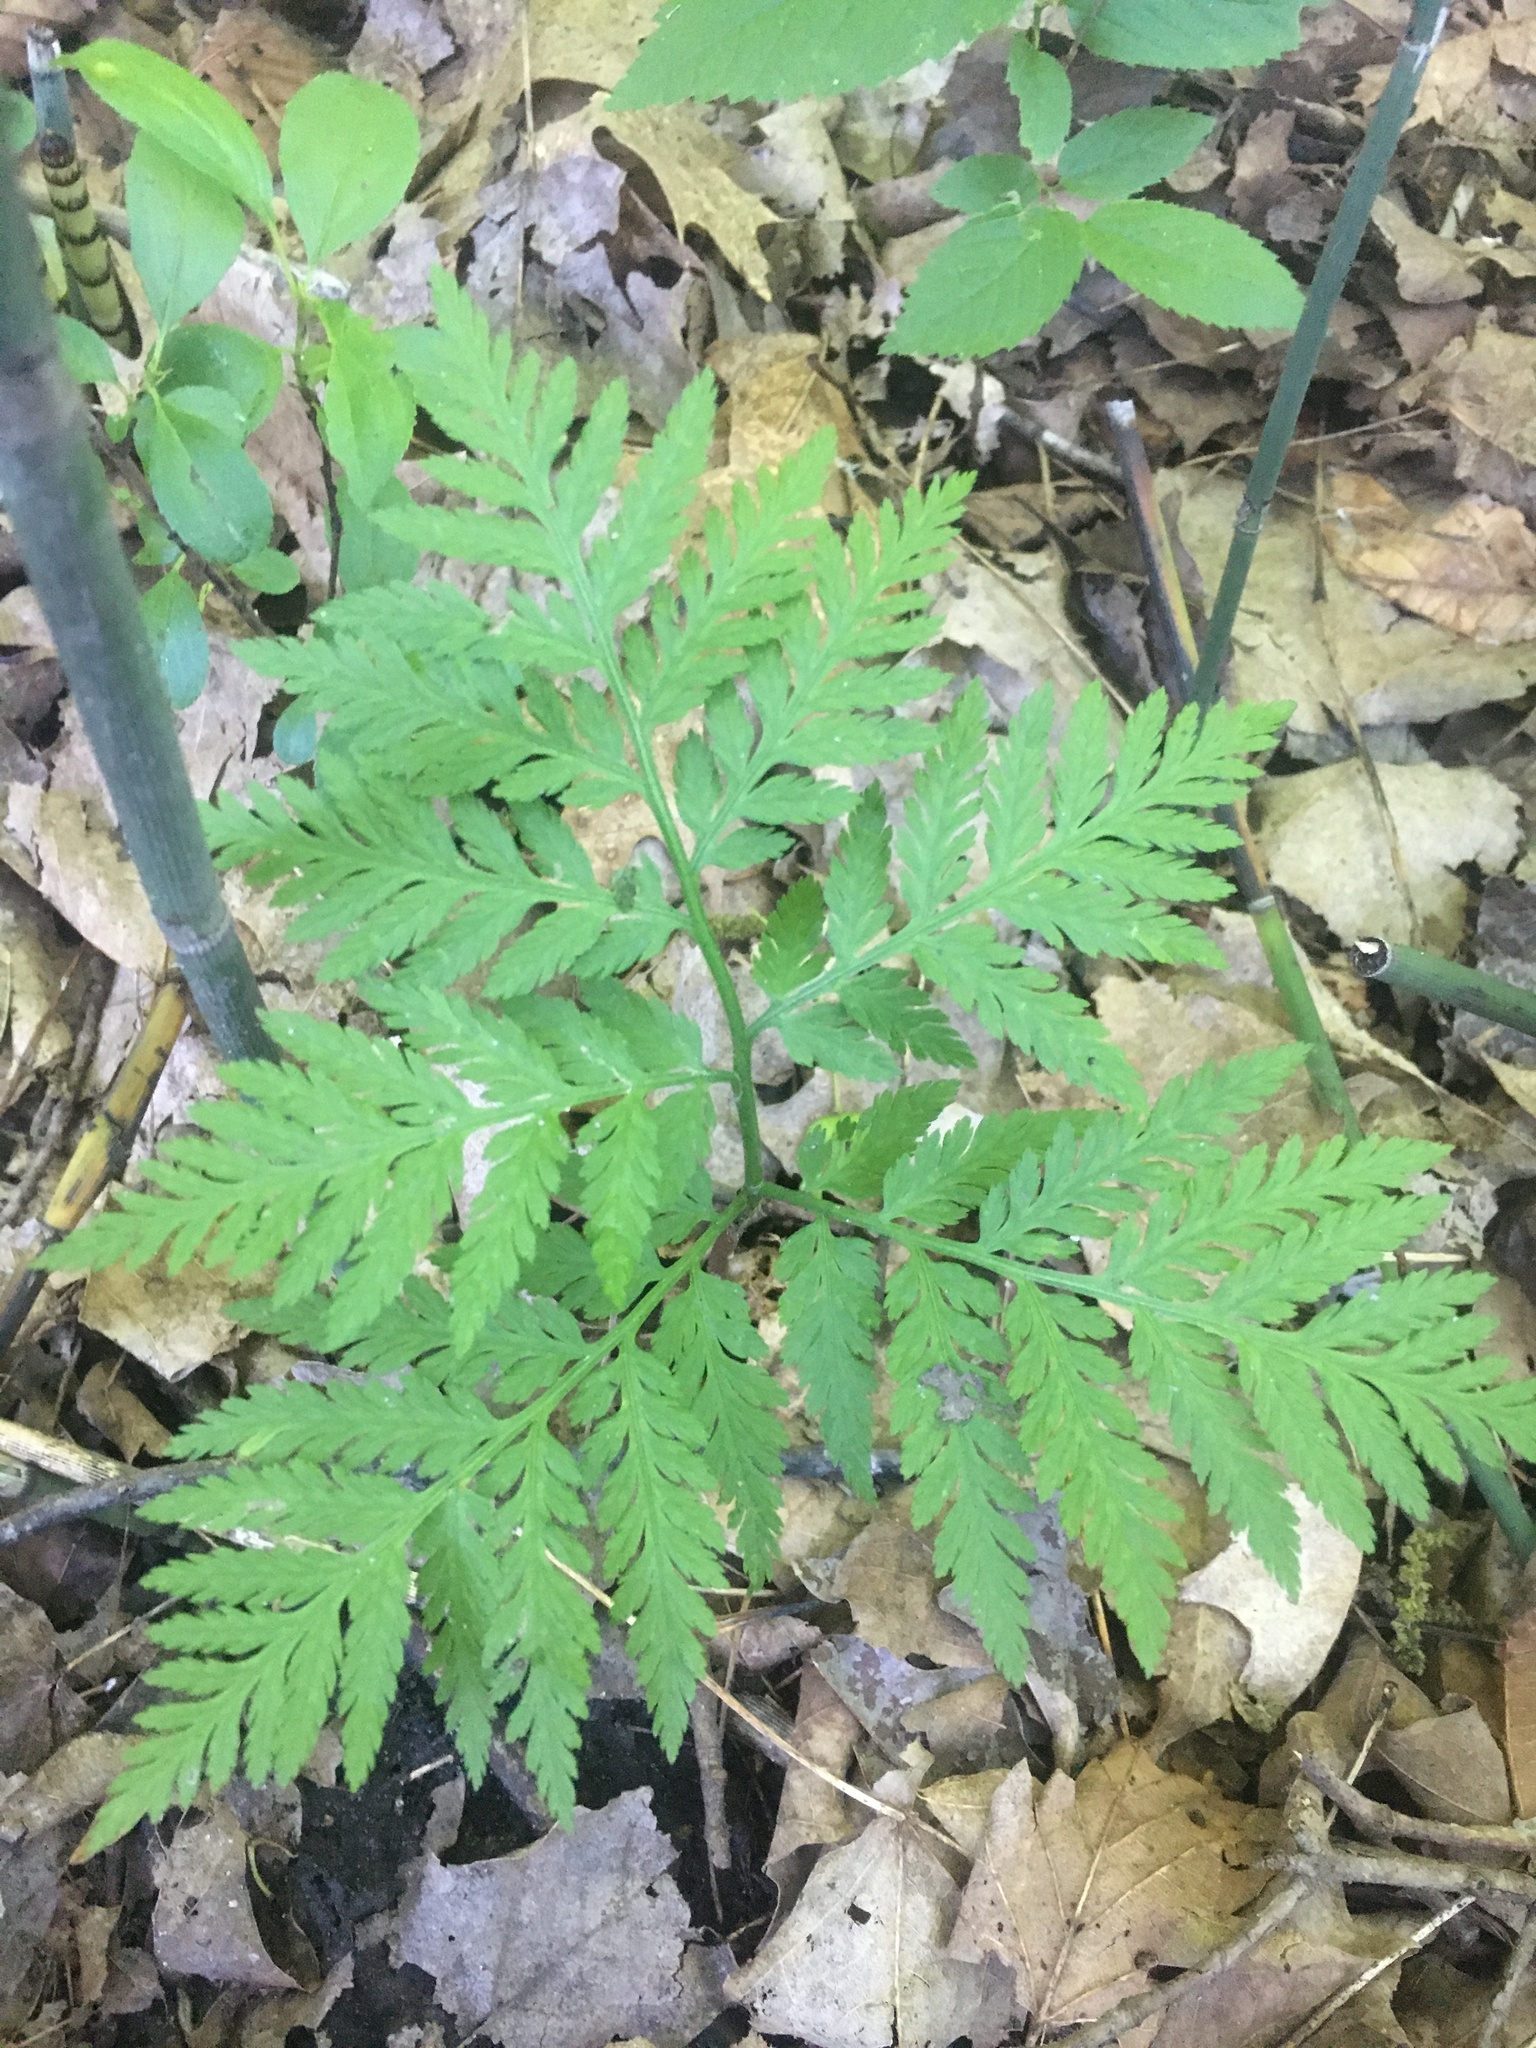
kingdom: Plantae
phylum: Tracheophyta
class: Polypodiopsida
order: Ophioglossales
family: Ophioglossaceae
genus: Botrypus
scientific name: Botrypus virginianus
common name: Common grapefern
